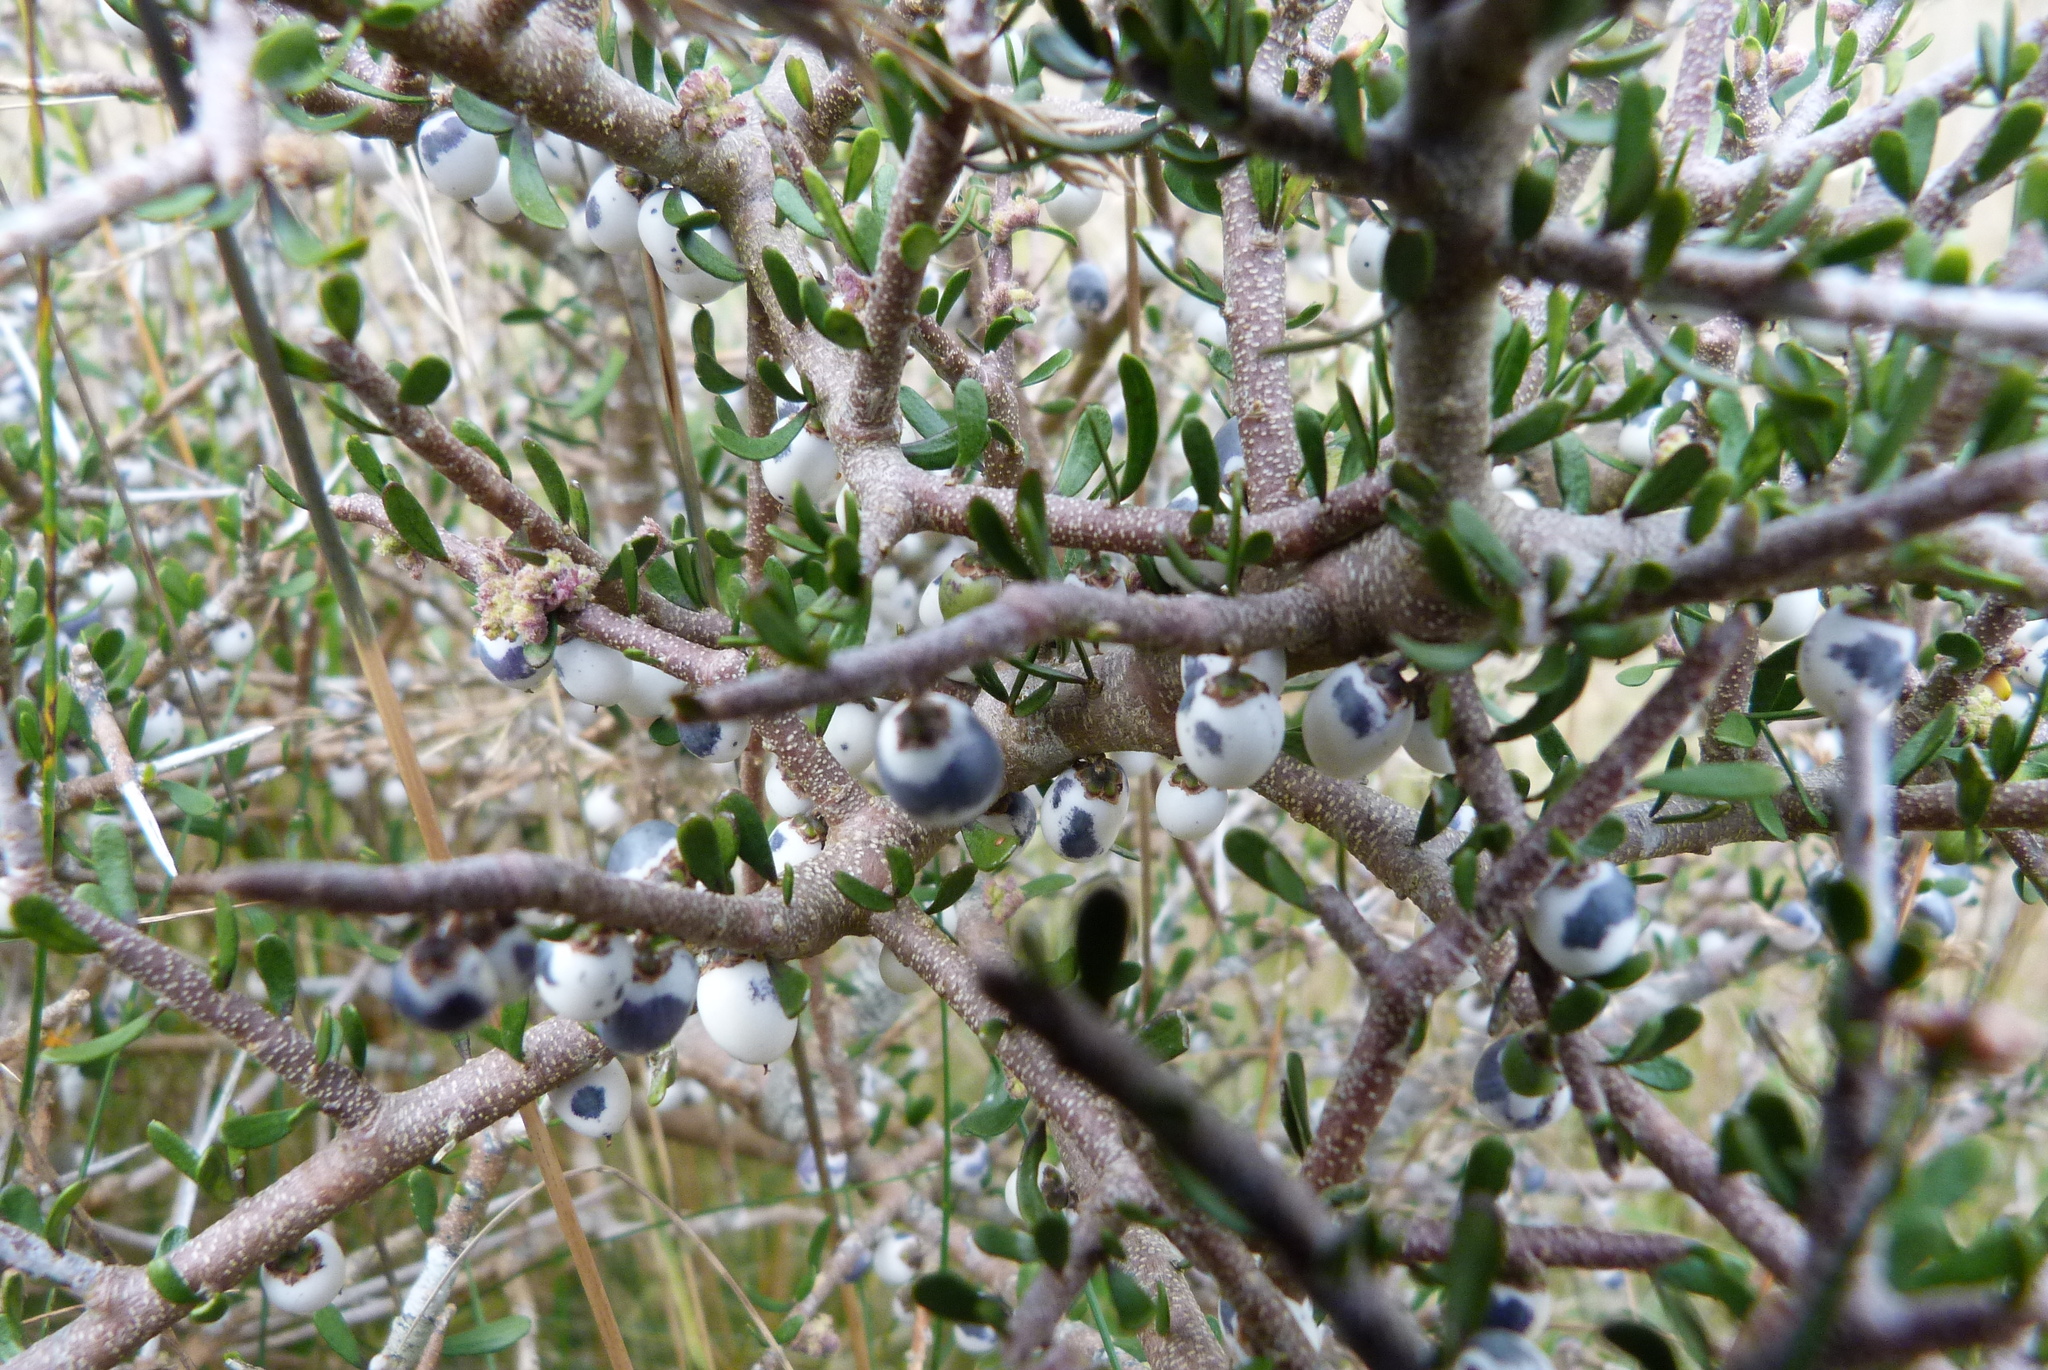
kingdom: Plantae
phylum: Tracheophyta
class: Magnoliopsida
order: Malpighiales
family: Violaceae
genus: Melicytus
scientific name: Melicytus alpinus
